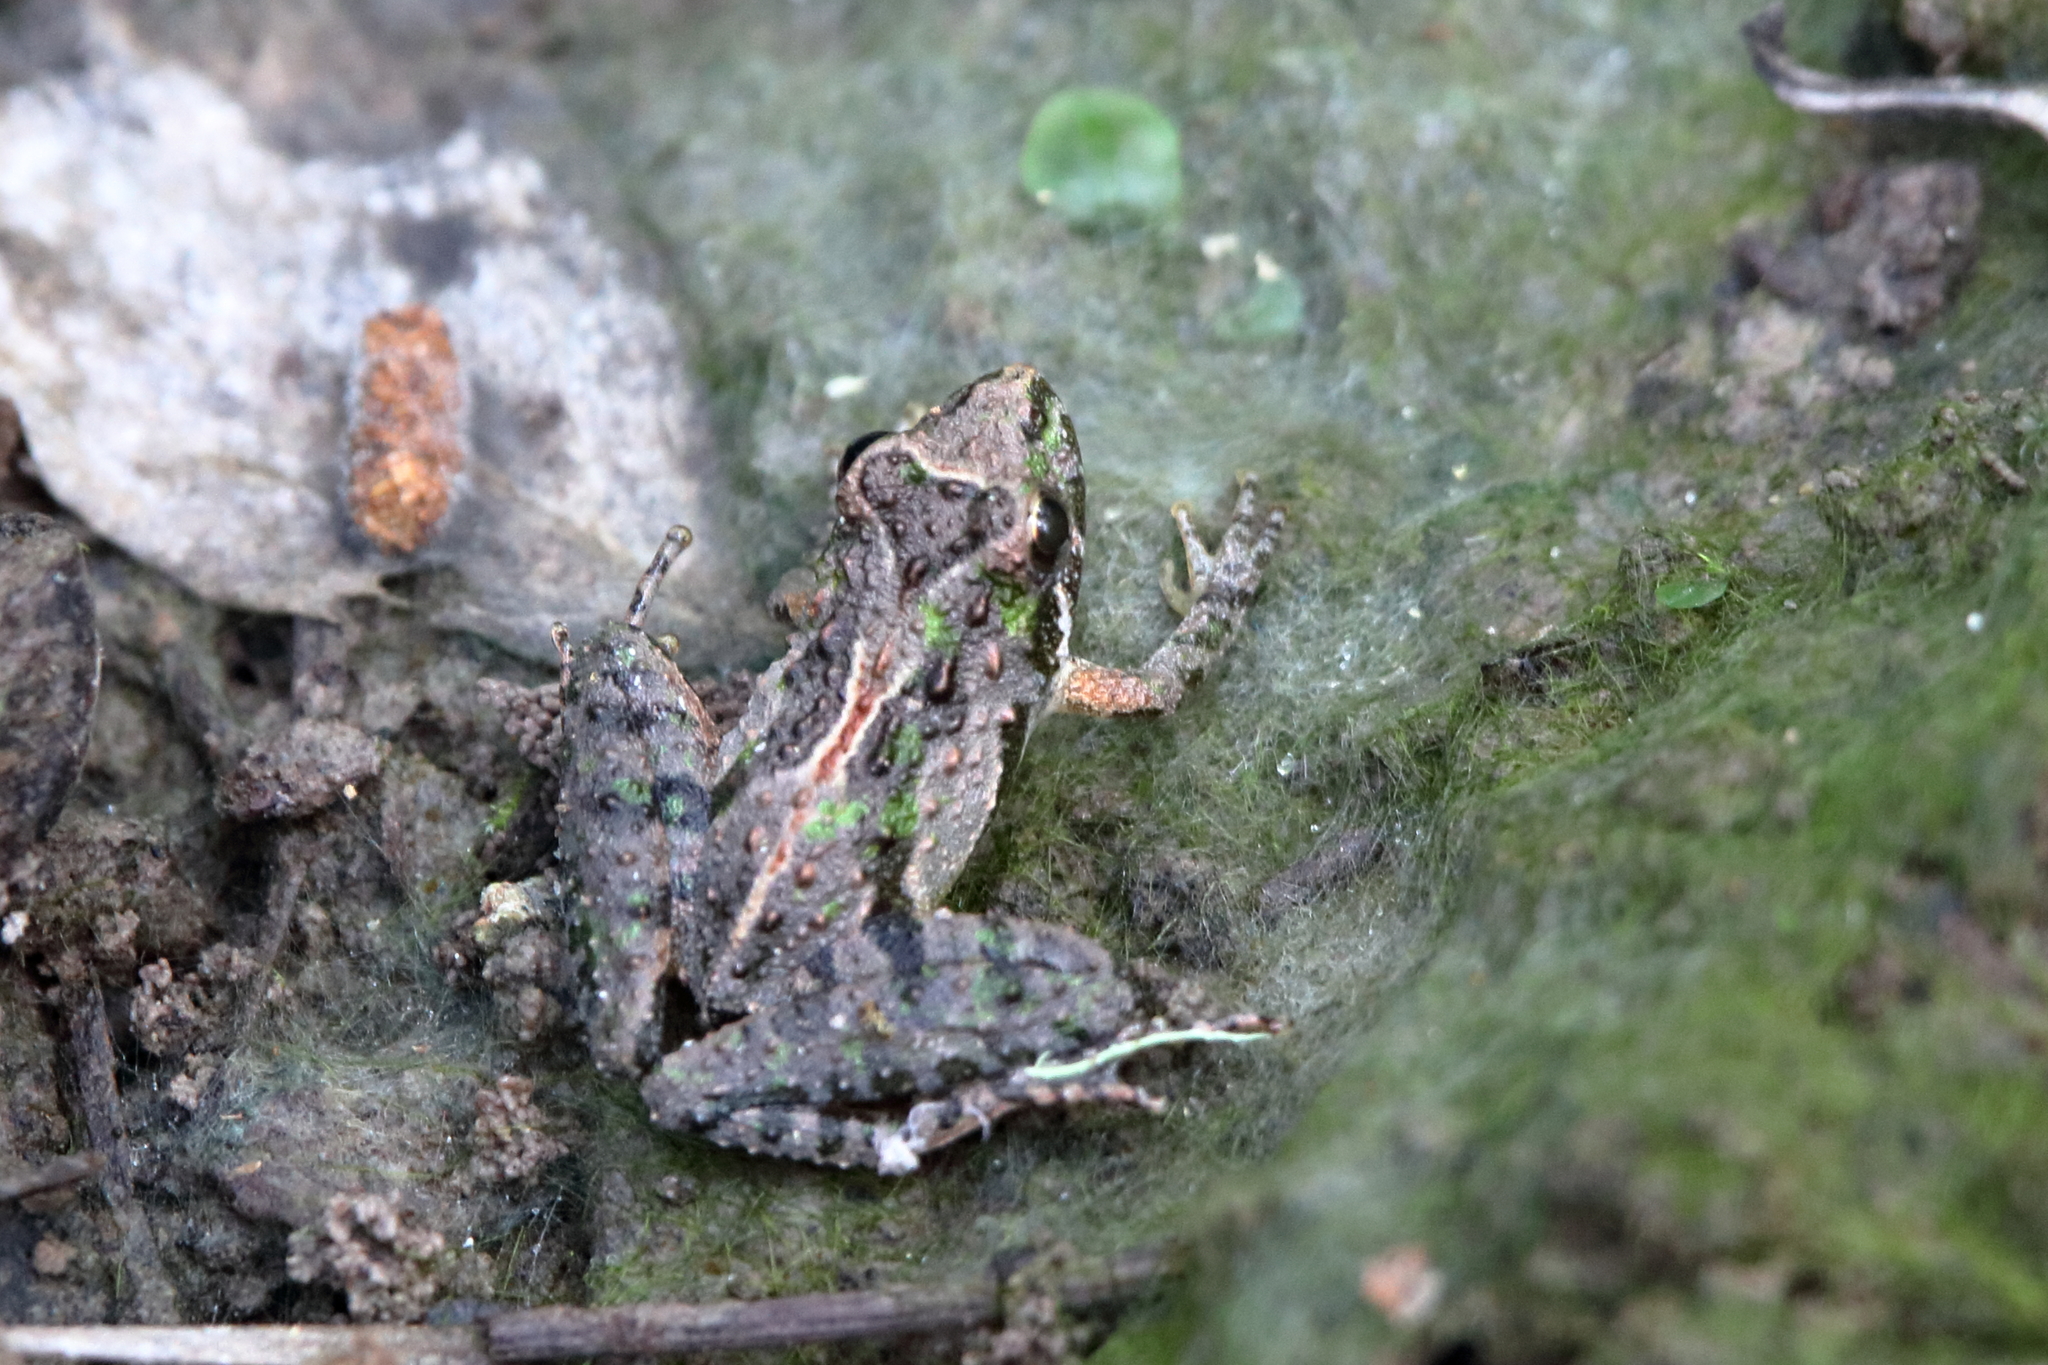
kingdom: Animalia
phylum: Chordata
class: Amphibia
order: Anura
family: Hylidae
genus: Acris
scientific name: Acris gryllus
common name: Southern cricket frog
